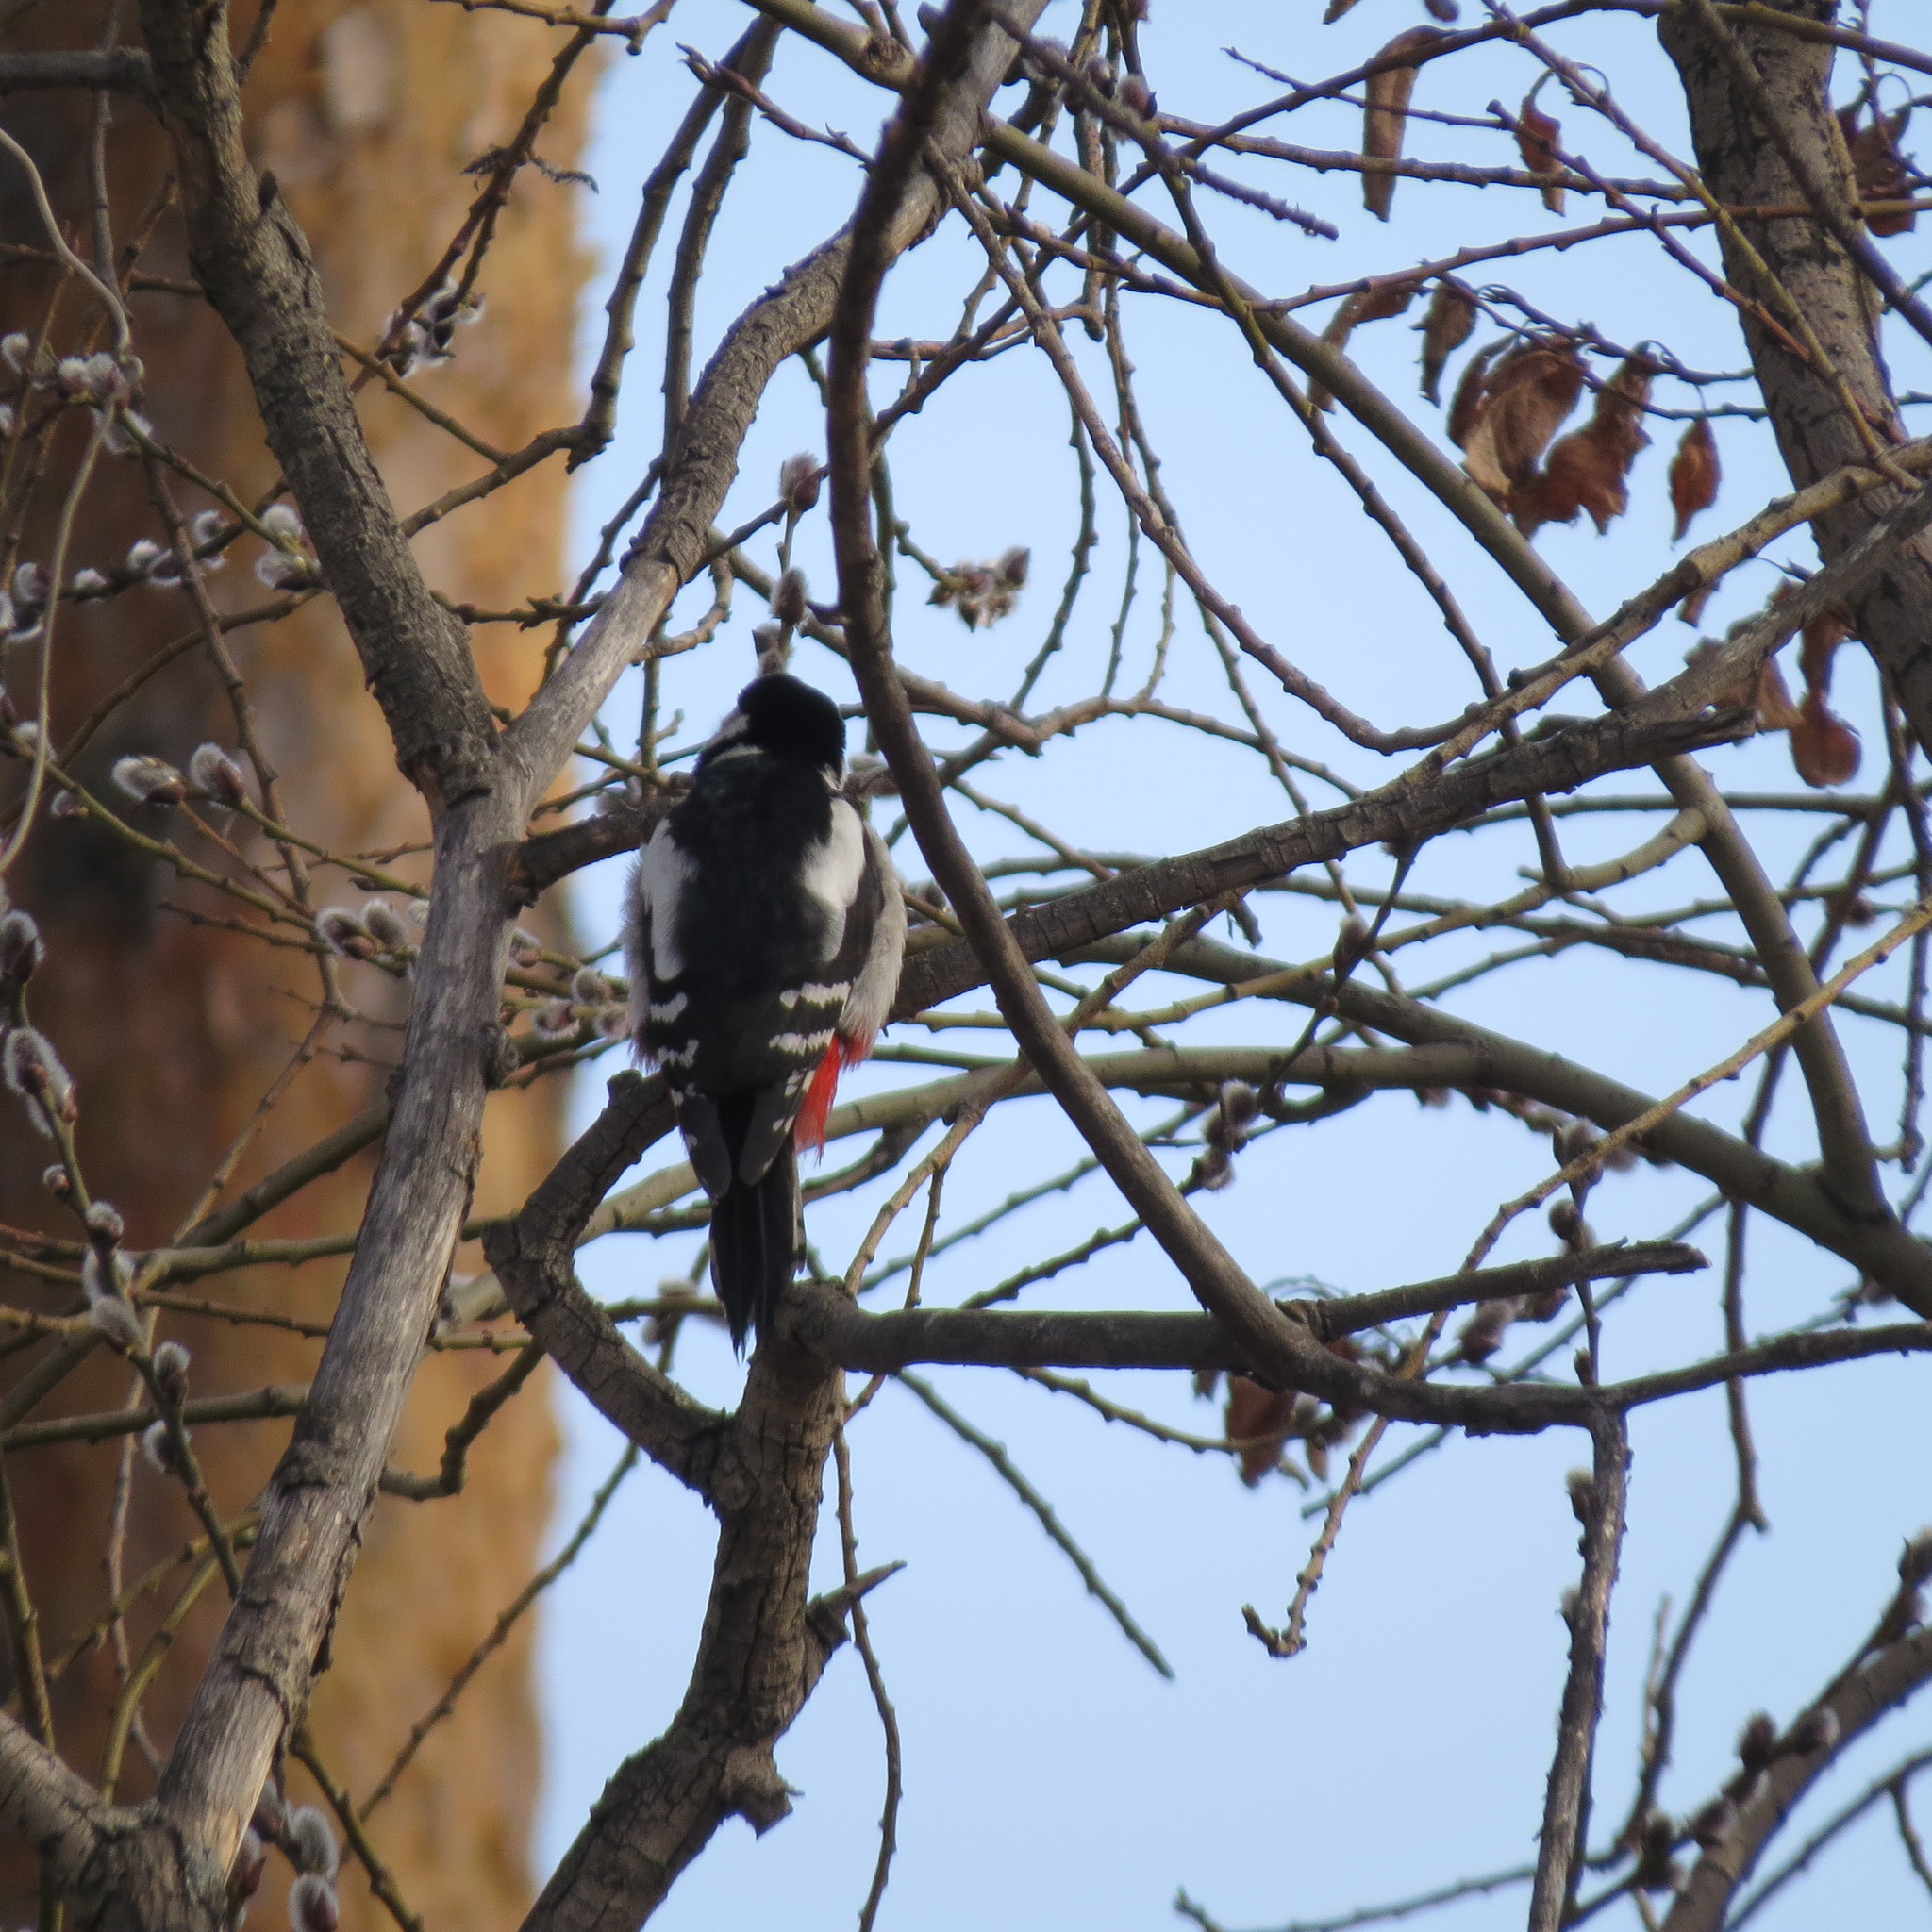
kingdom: Animalia
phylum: Chordata
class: Aves
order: Piciformes
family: Picidae
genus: Dendrocopos
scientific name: Dendrocopos major
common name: Great spotted woodpecker
